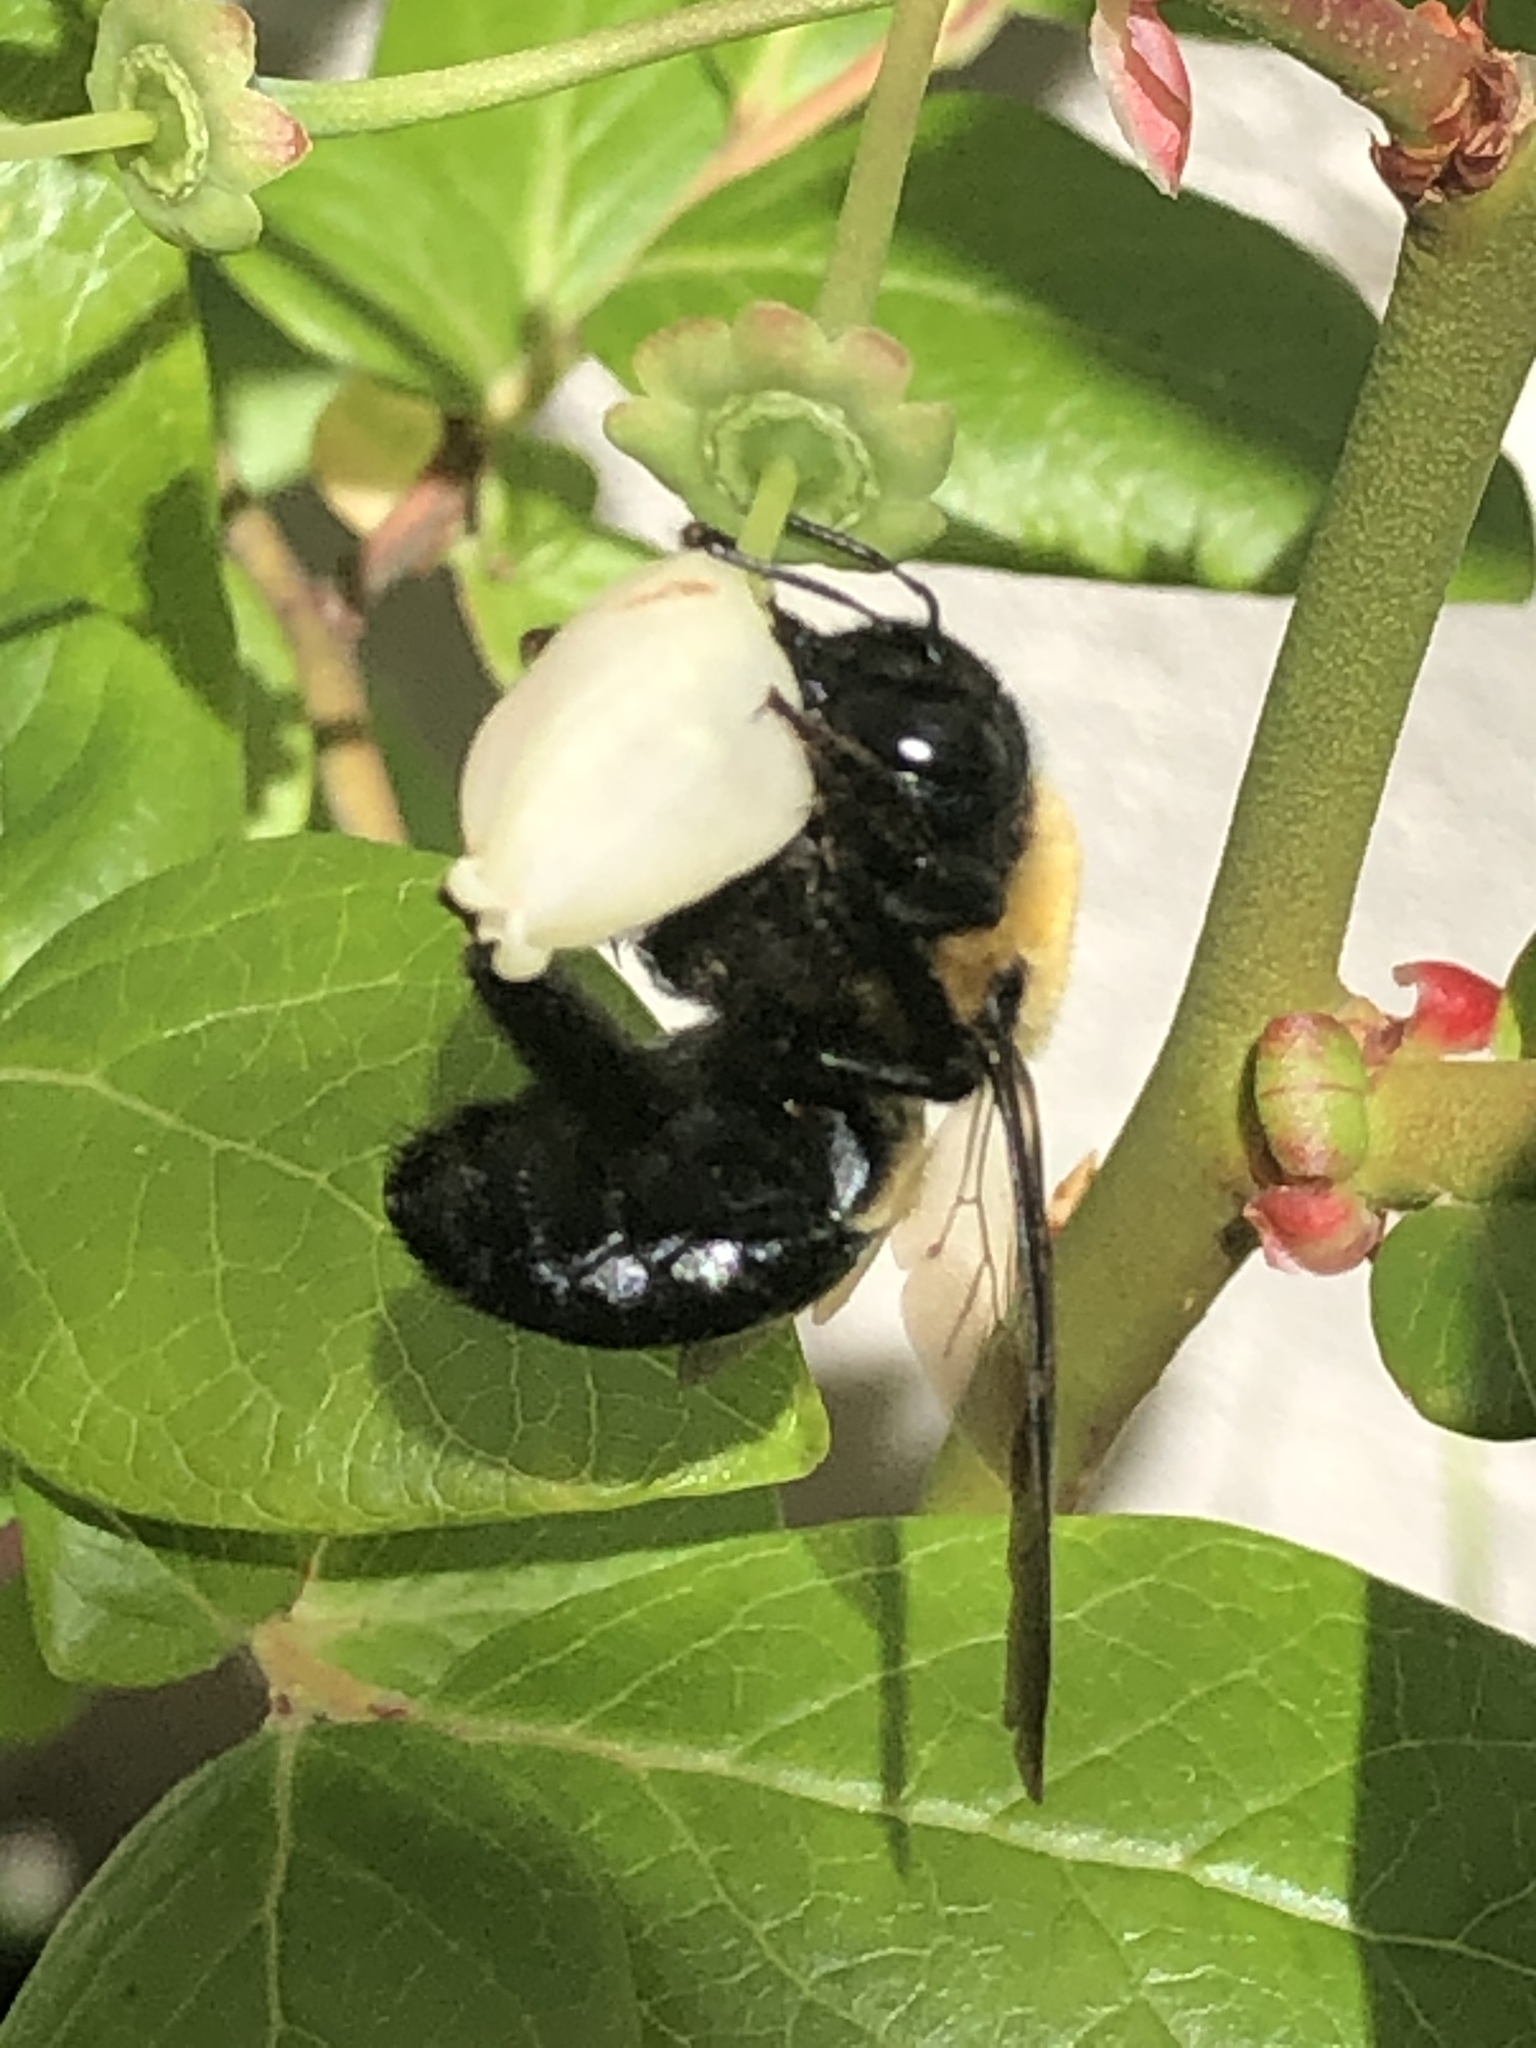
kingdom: Animalia
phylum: Arthropoda
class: Insecta
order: Hymenoptera
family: Apidae
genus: Xylocopa
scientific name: Xylocopa virginica
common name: Carpenter bee
